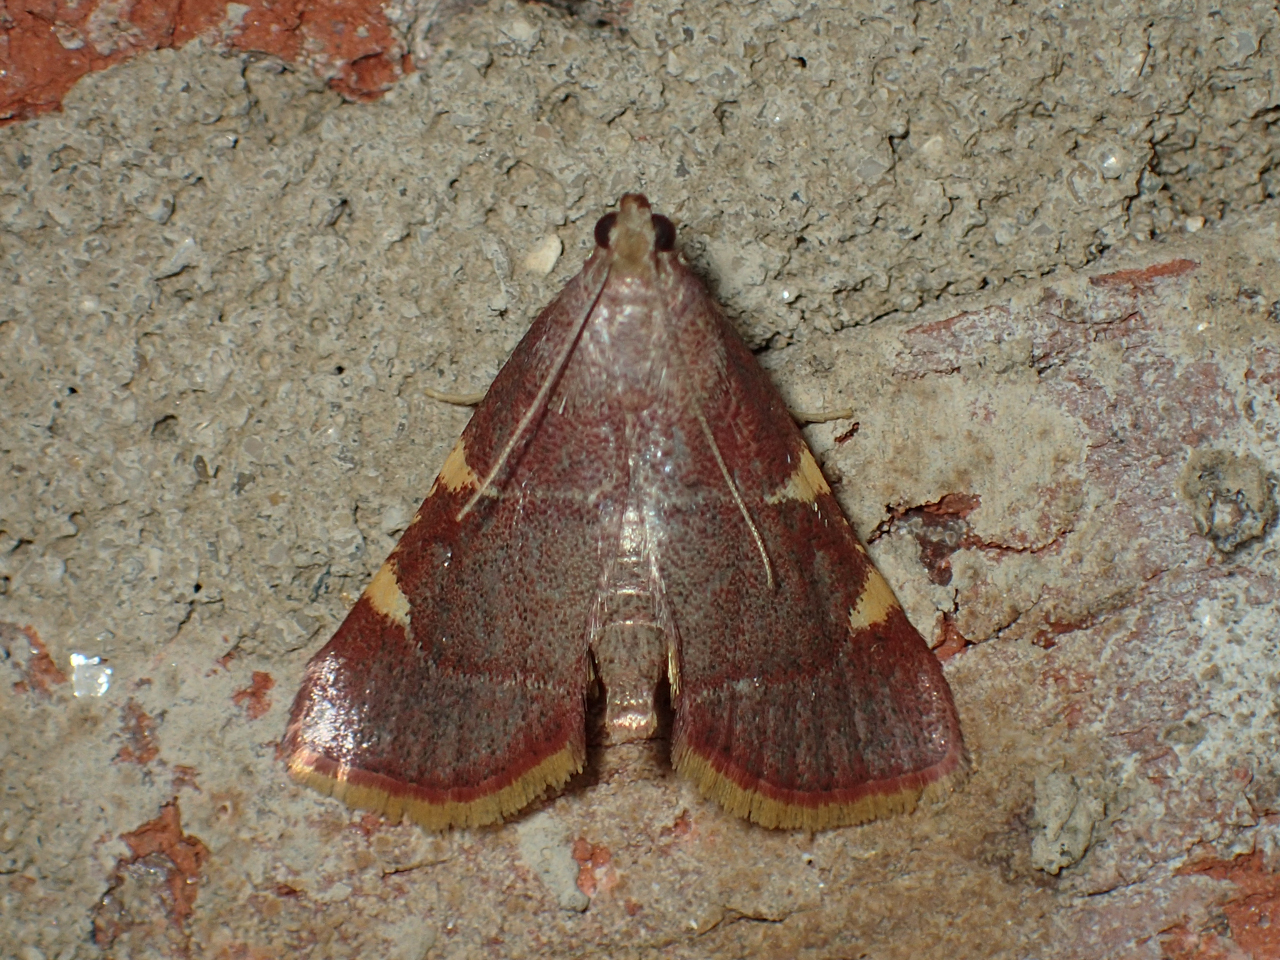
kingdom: Animalia
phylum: Arthropoda
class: Insecta
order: Lepidoptera
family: Pyralidae
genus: Hypsopygia
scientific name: Hypsopygia olinalis
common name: Yellow-fringed dolichomia moth
